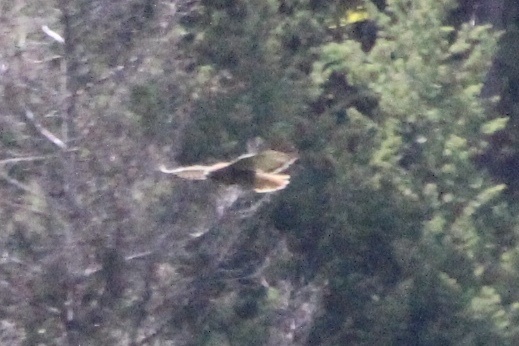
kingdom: Animalia
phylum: Chordata
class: Aves
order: Accipitriformes
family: Accipitridae
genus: Buteo
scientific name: Buteo jamaicensis
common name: Red-tailed hawk
